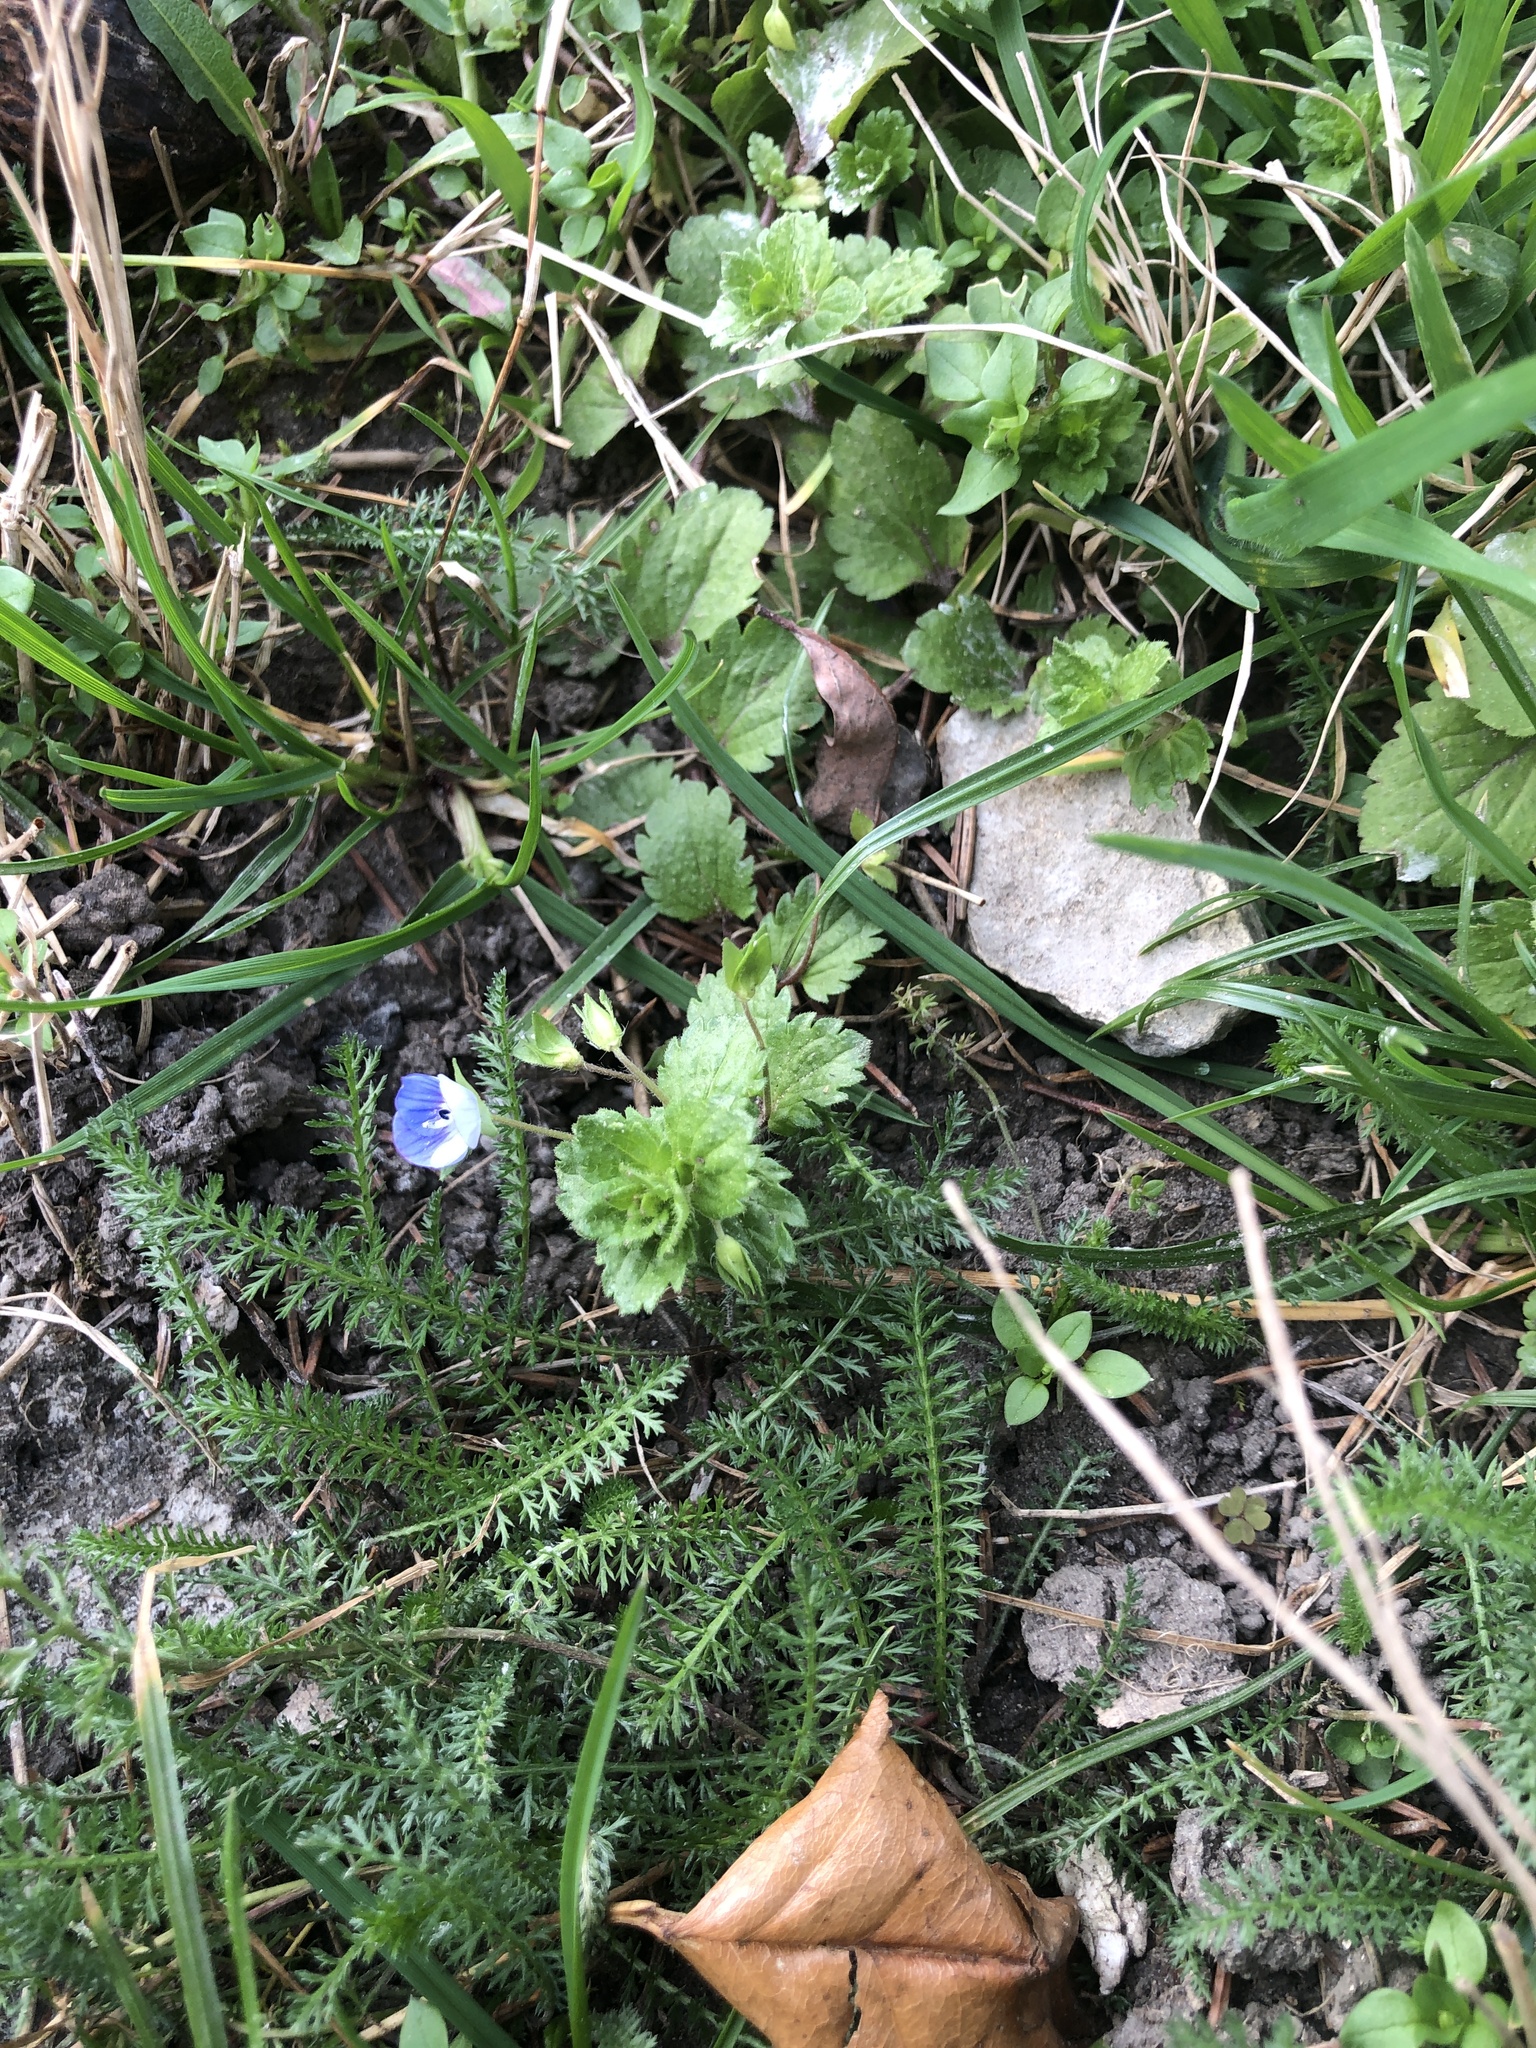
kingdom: Plantae
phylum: Tracheophyta
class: Magnoliopsida
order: Lamiales
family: Plantaginaceae
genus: Veronica
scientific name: Veronica persica
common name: Common field-speedwell
